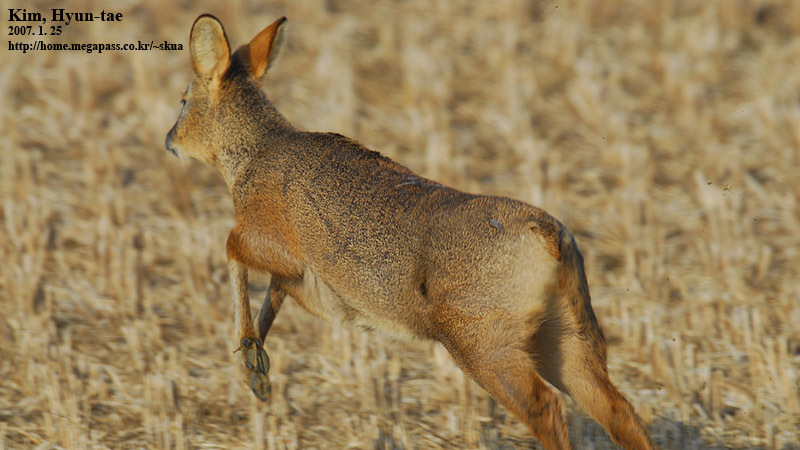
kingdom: Animalia
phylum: Chordata
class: Mammalia
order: Artiodactyla
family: Cervidae
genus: Hydropotes
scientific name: Hydropotes inermis
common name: Chinese water deer
